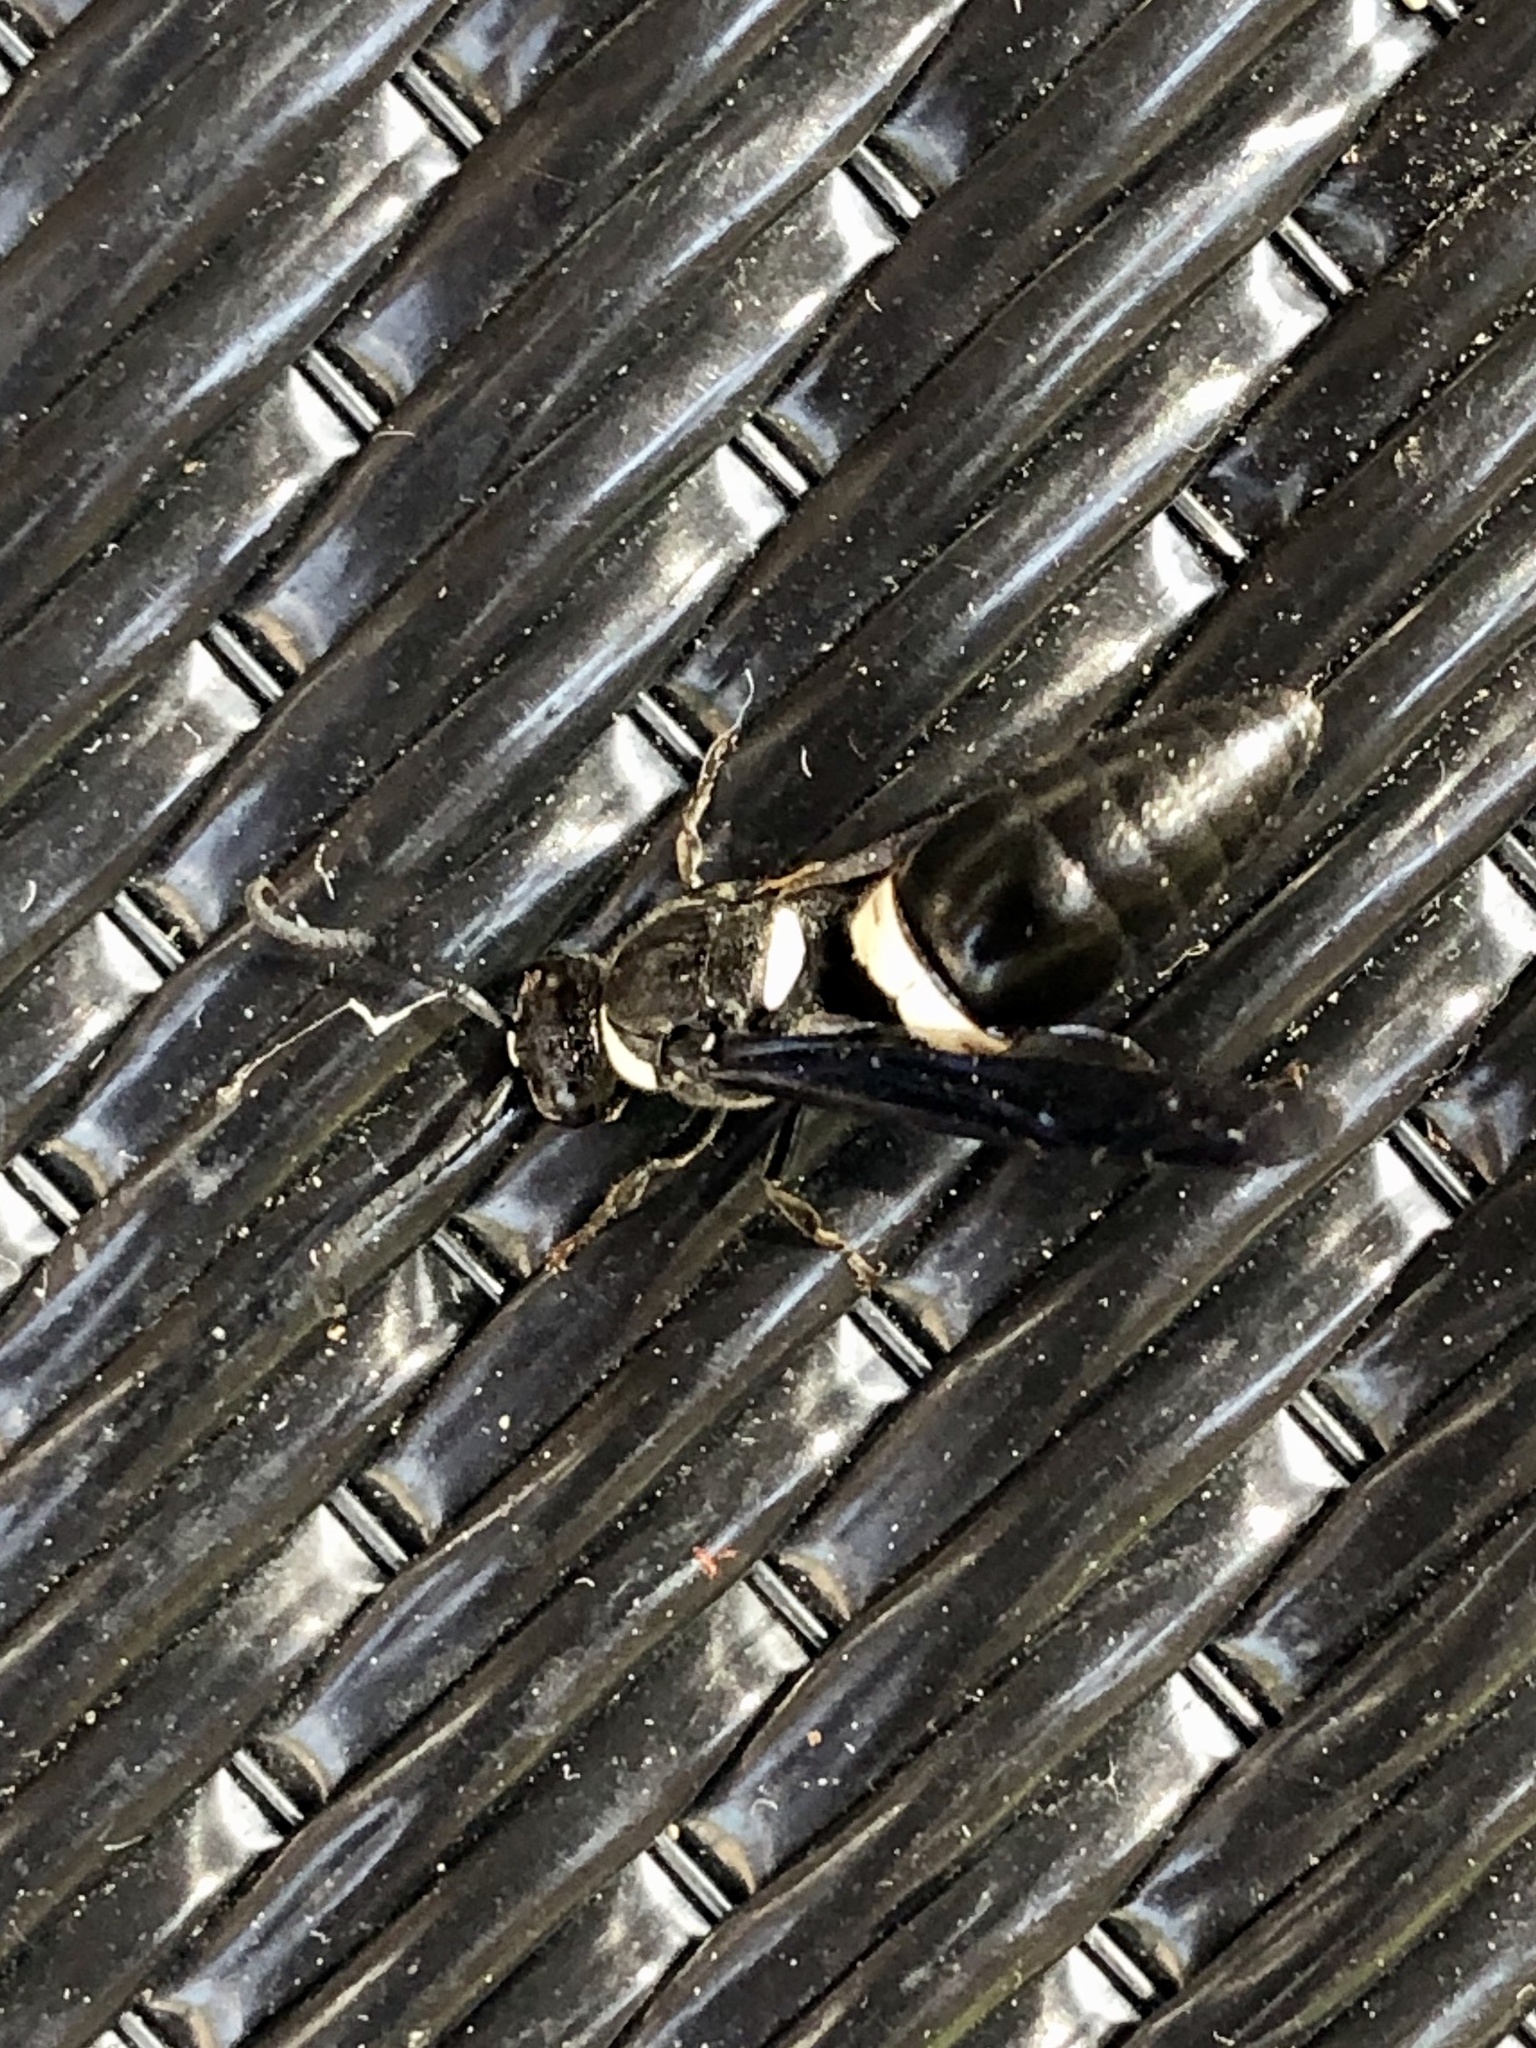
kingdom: Animalia
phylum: Arthropoda
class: Insecta
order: Hymenoptera
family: Eumenidae
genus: Monobia
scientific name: Monobia quadridens
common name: Four-toothed mason wasp
